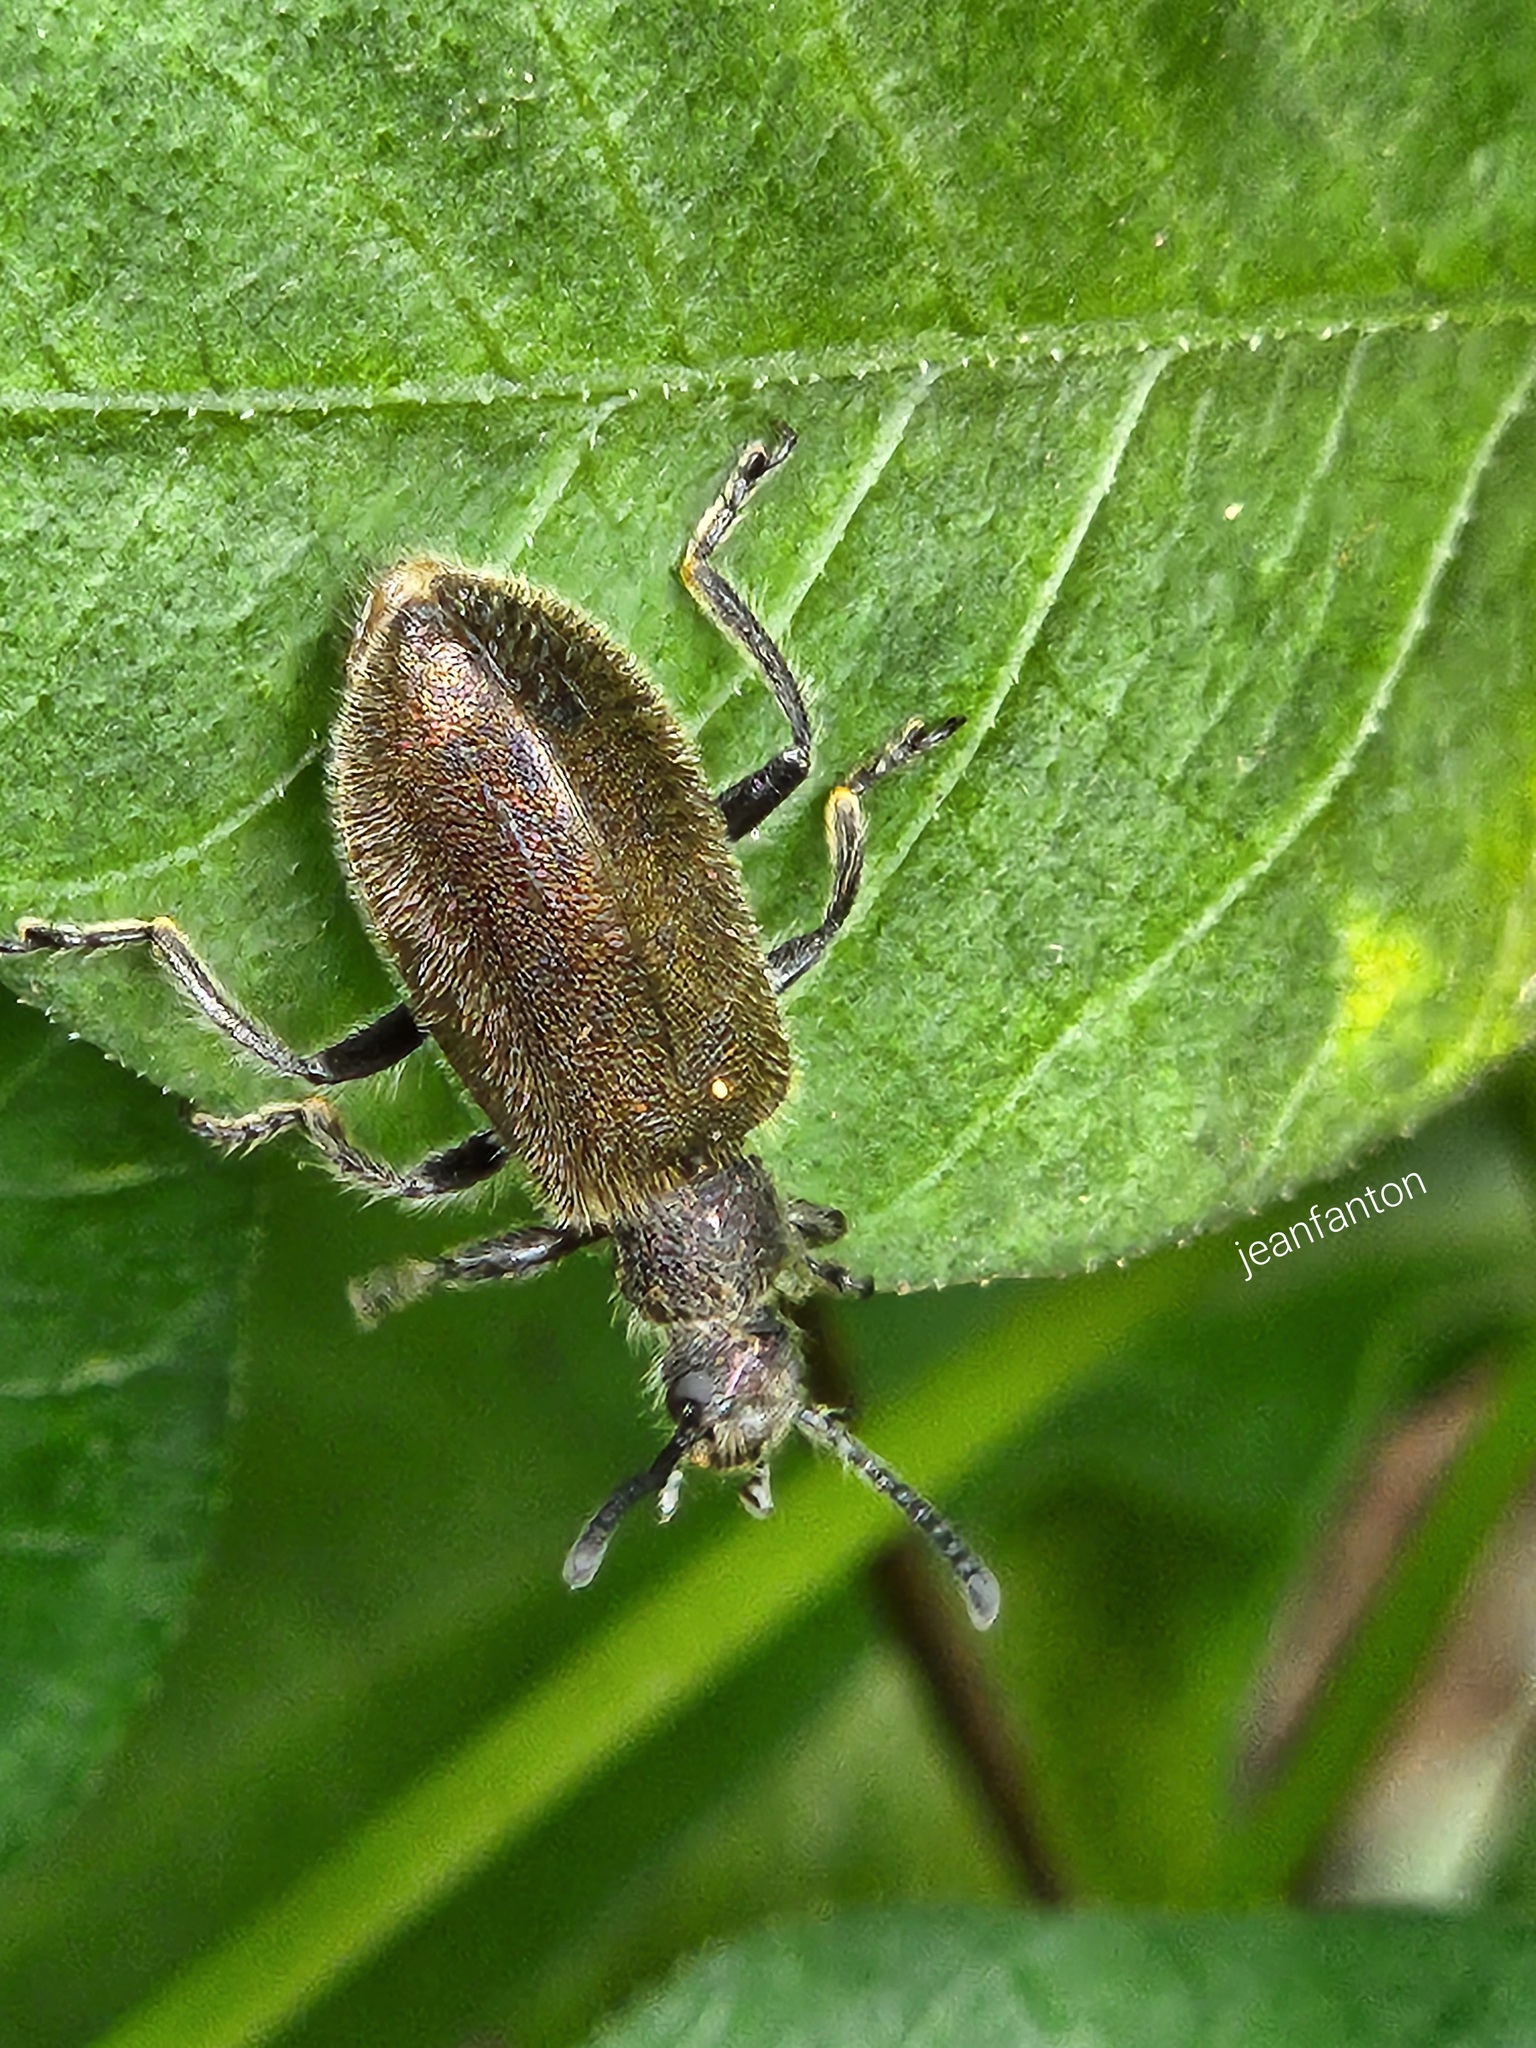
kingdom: Animalia
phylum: Arthropoda
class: Insecta
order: Coleoptera
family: Tenebrionidae
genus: Lagria
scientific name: Lagria villosa
